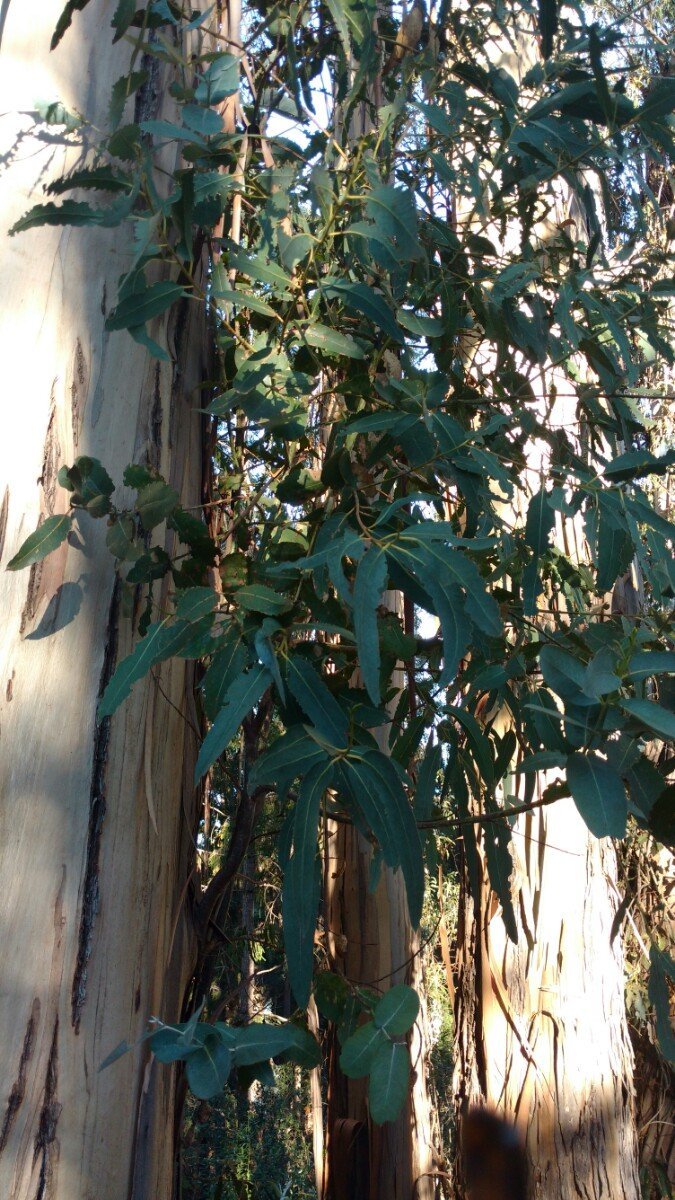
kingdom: Plantae
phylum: Tracheophyta
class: Magnoliopsida
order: Myrtales
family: Myrtaceae
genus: Eucalyptus
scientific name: Eucalyptus globulus
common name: Southern blue-gum
